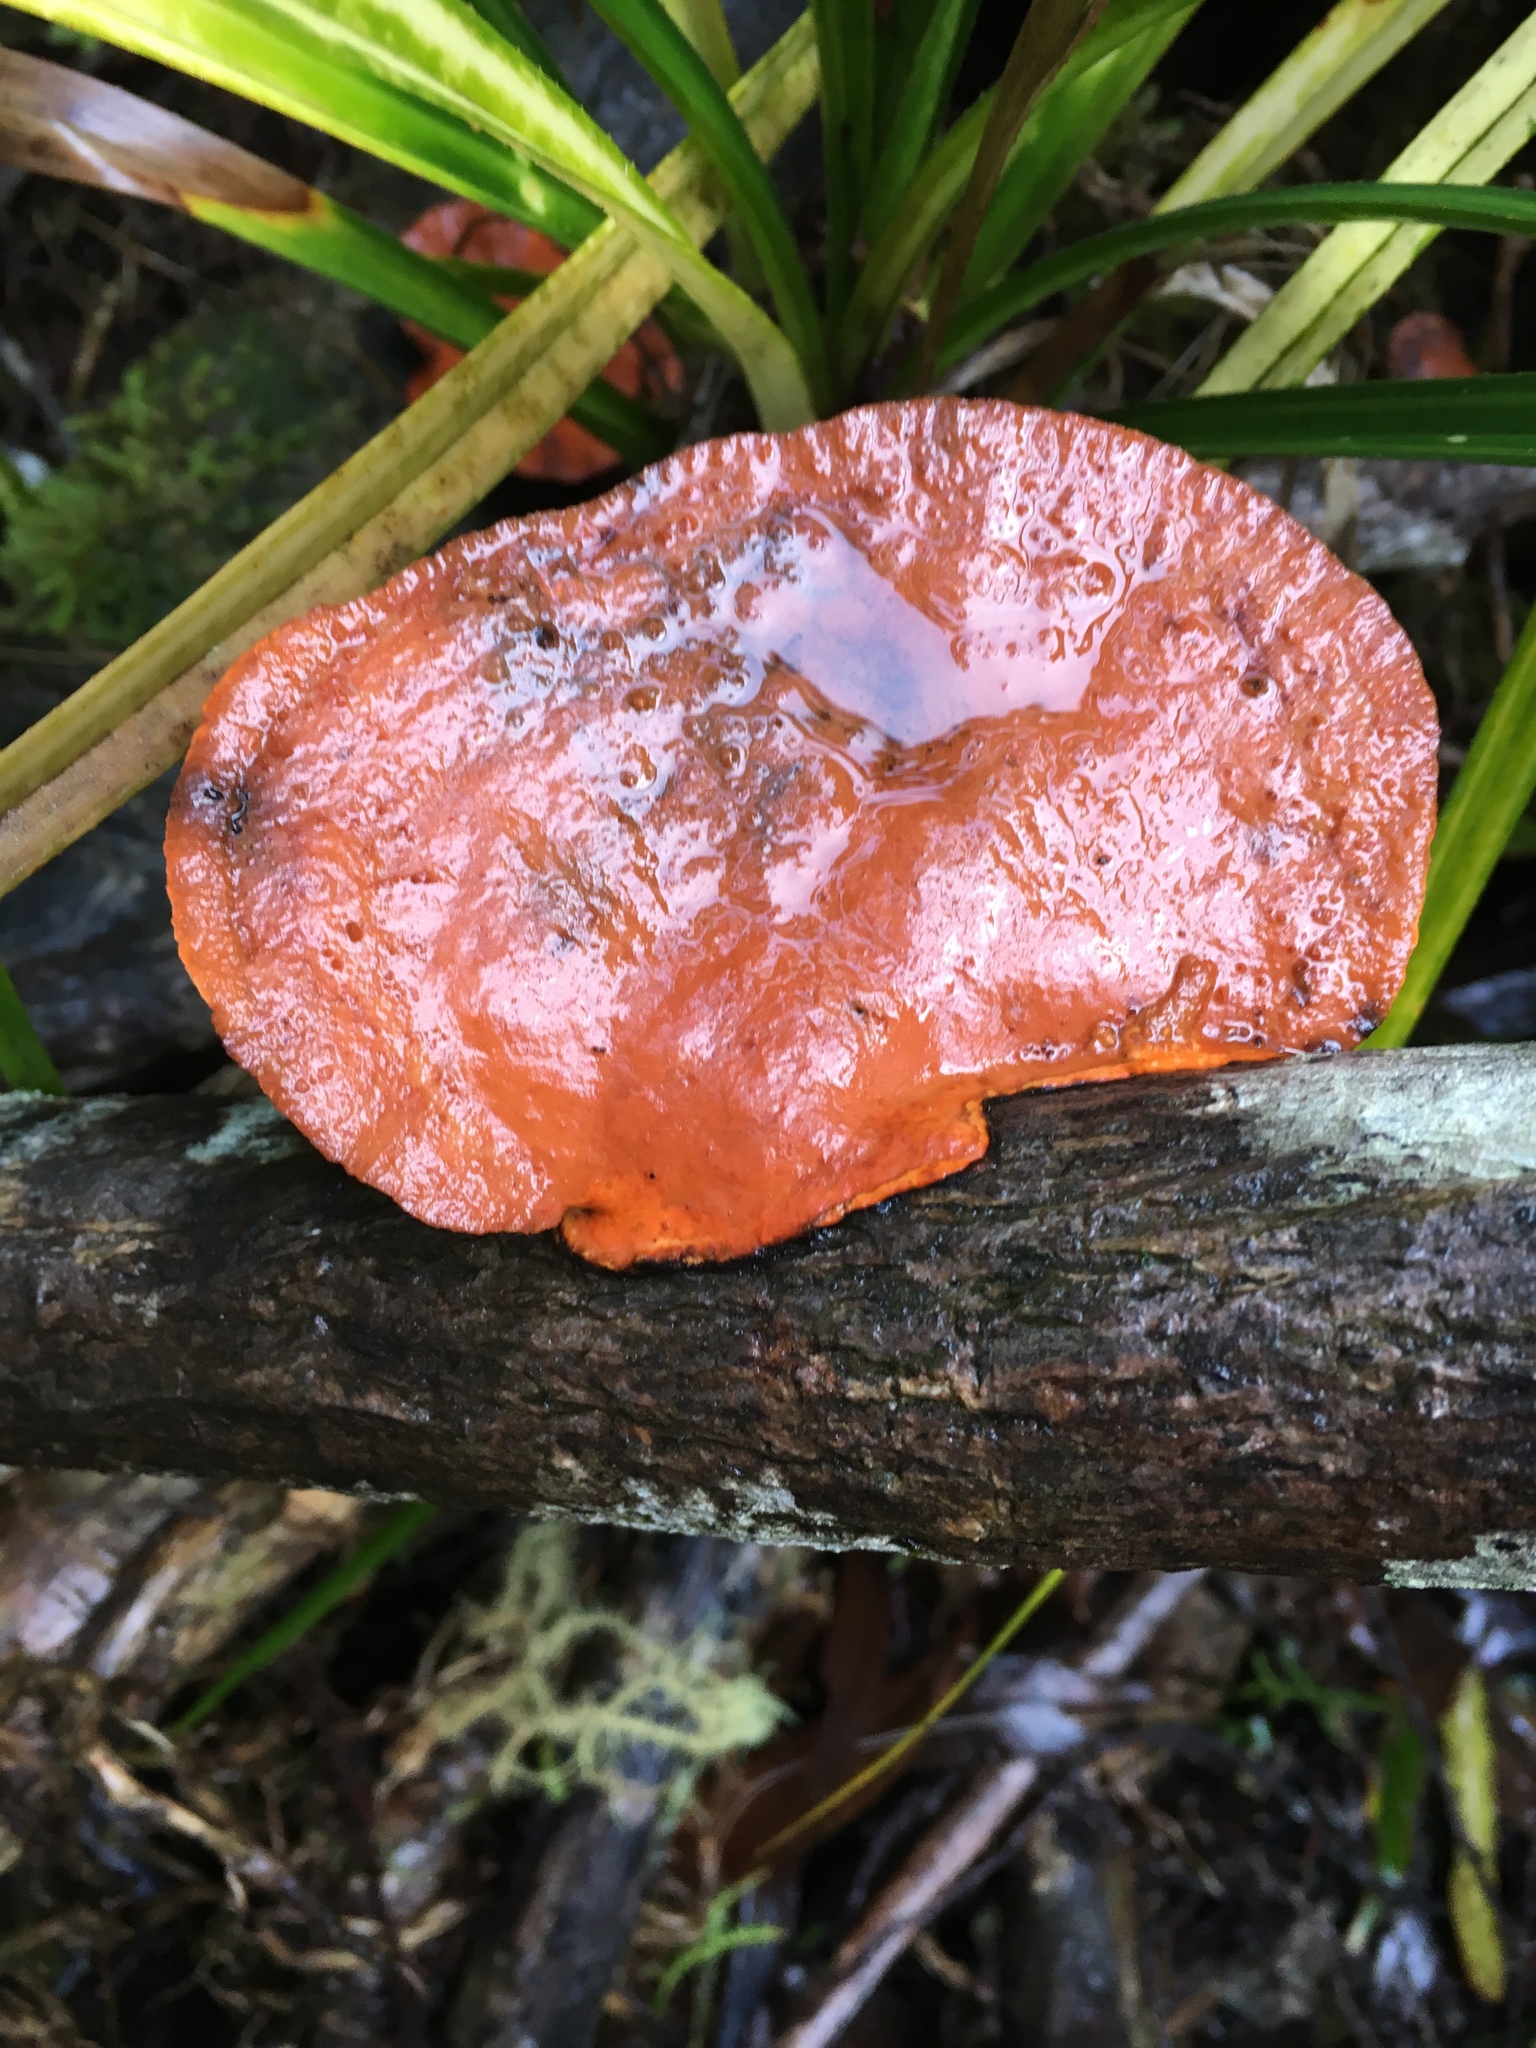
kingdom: Fungi
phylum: Basidiomycota
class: Agaricomycetes
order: Polyporales
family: Polyporaceae
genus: Trametes
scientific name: Trametes coccinea
